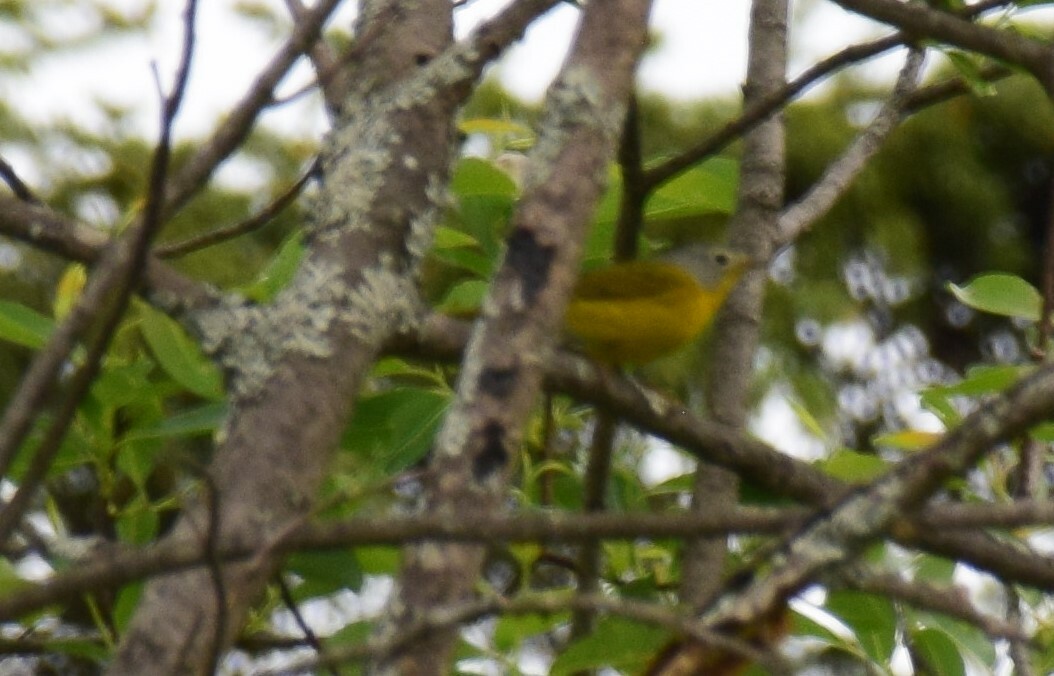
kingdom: Animalia
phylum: Chordata
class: Aves
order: Passeriformes
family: Parulidae
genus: Leiothlypis
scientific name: Leiothlypis ruficapilla
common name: Nashville warbler
